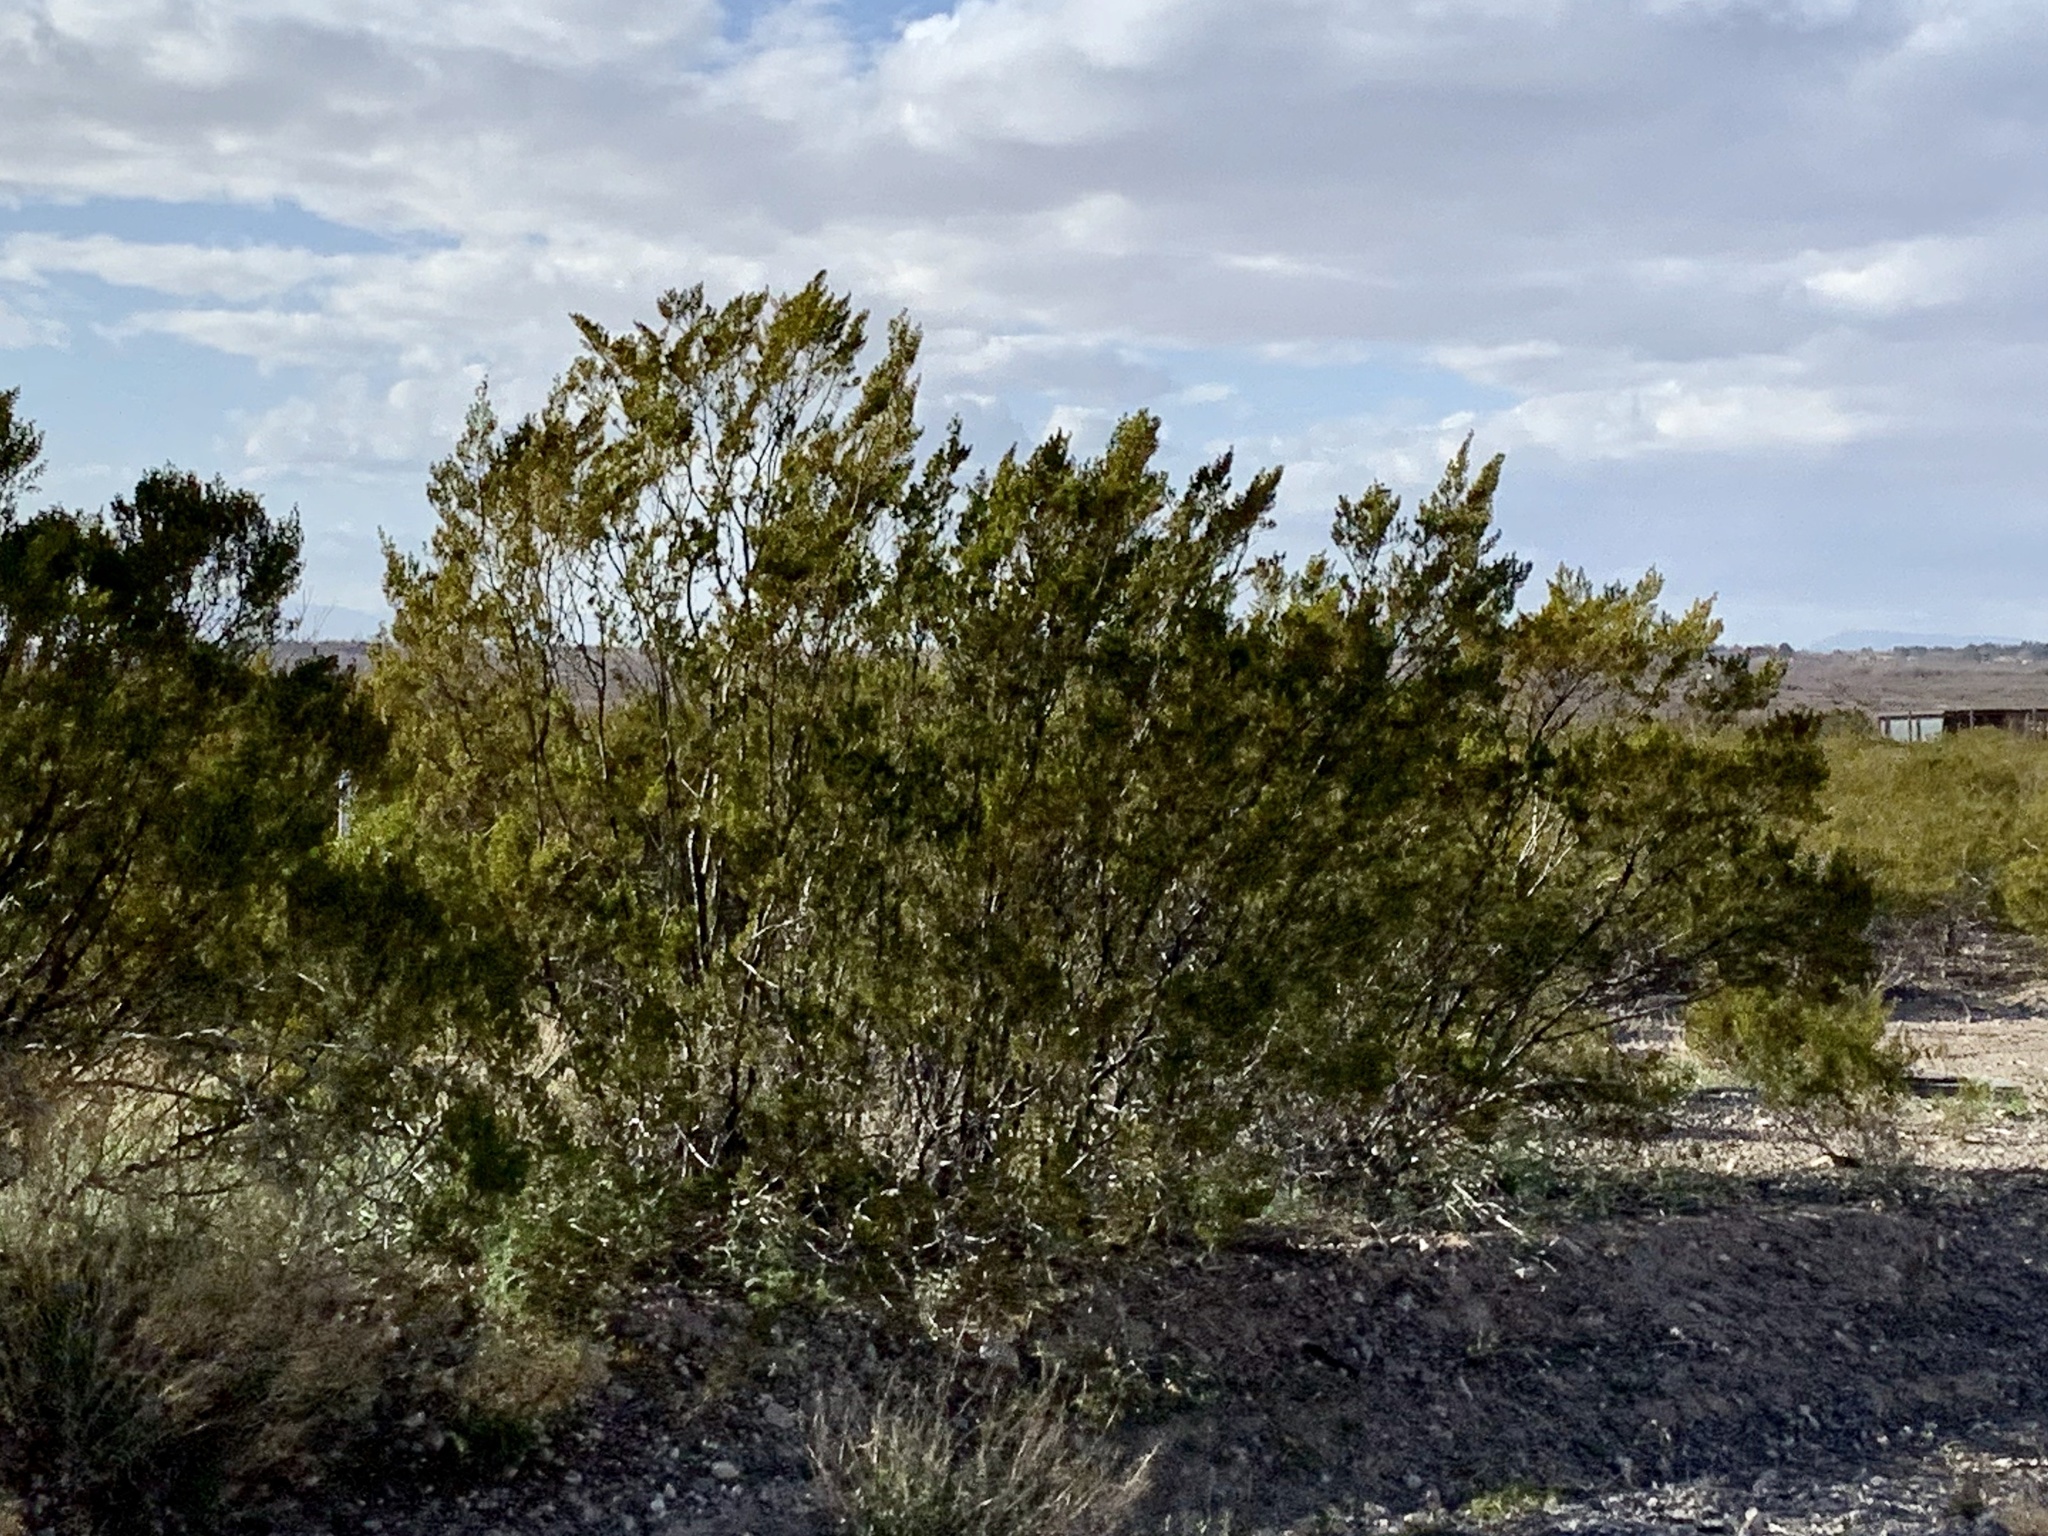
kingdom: Plantae
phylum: Tracheophyta
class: Magnoliopsida
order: Zygophyllales
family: Zygophyllaceae
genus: Larrea
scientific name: Larrea tridentata
